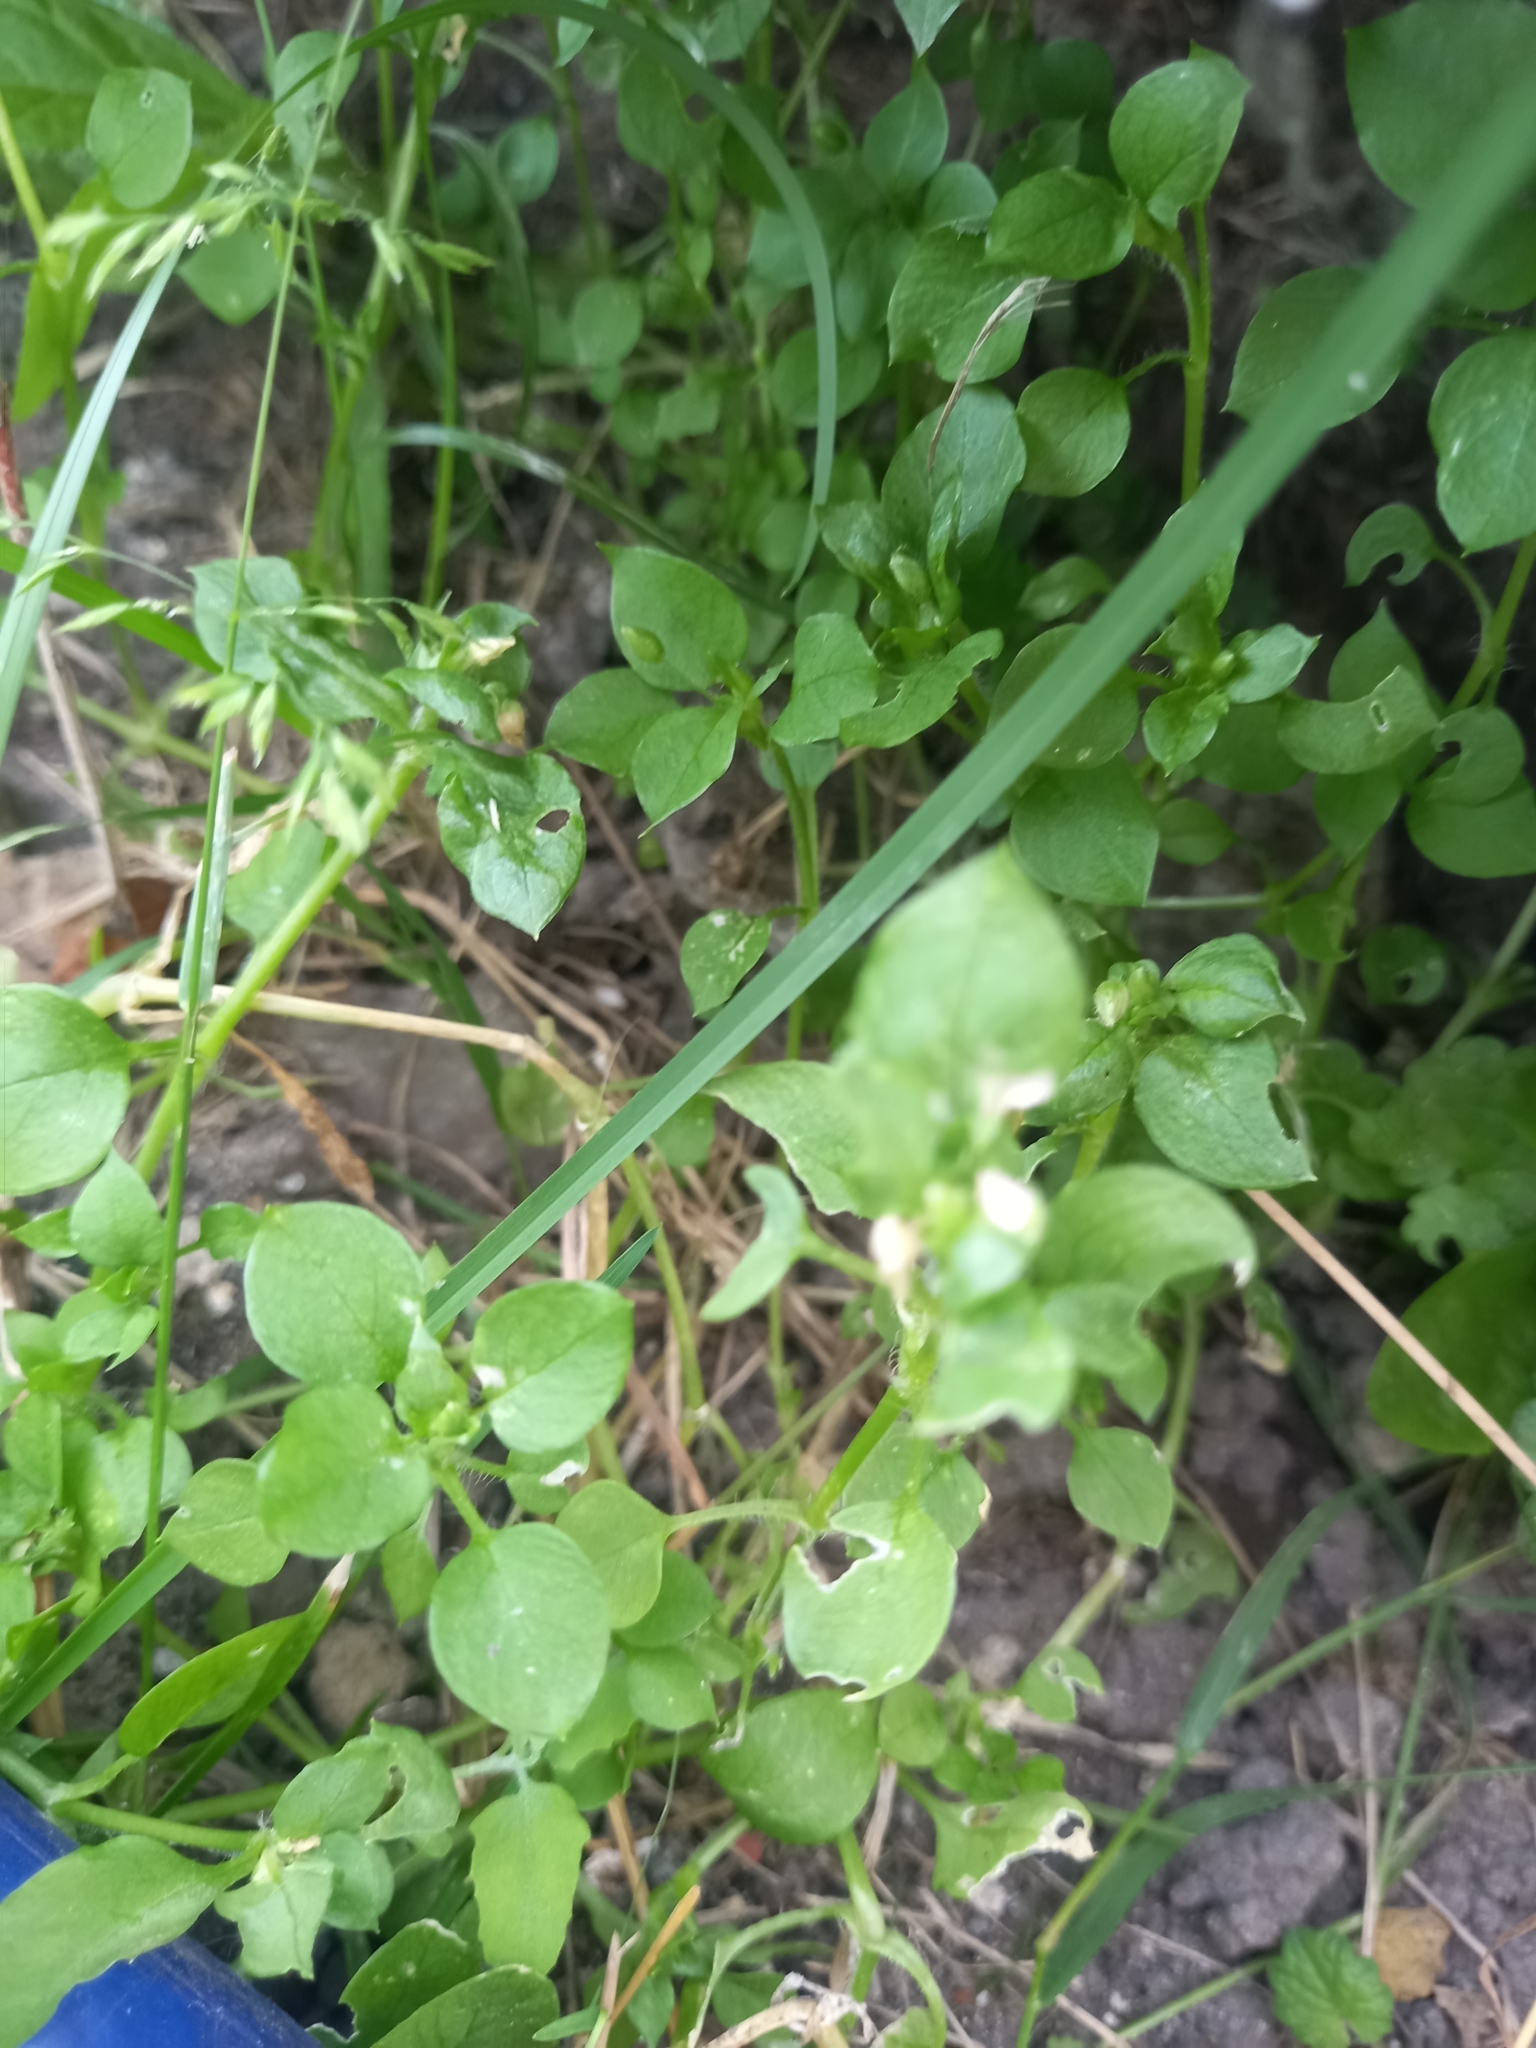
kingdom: Plantae
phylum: Tracheophyta
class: Magnoliopsida
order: Caryophyllales
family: Caryophyllaceae
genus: Stellaria
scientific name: Stellaria media
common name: Common chickweed
